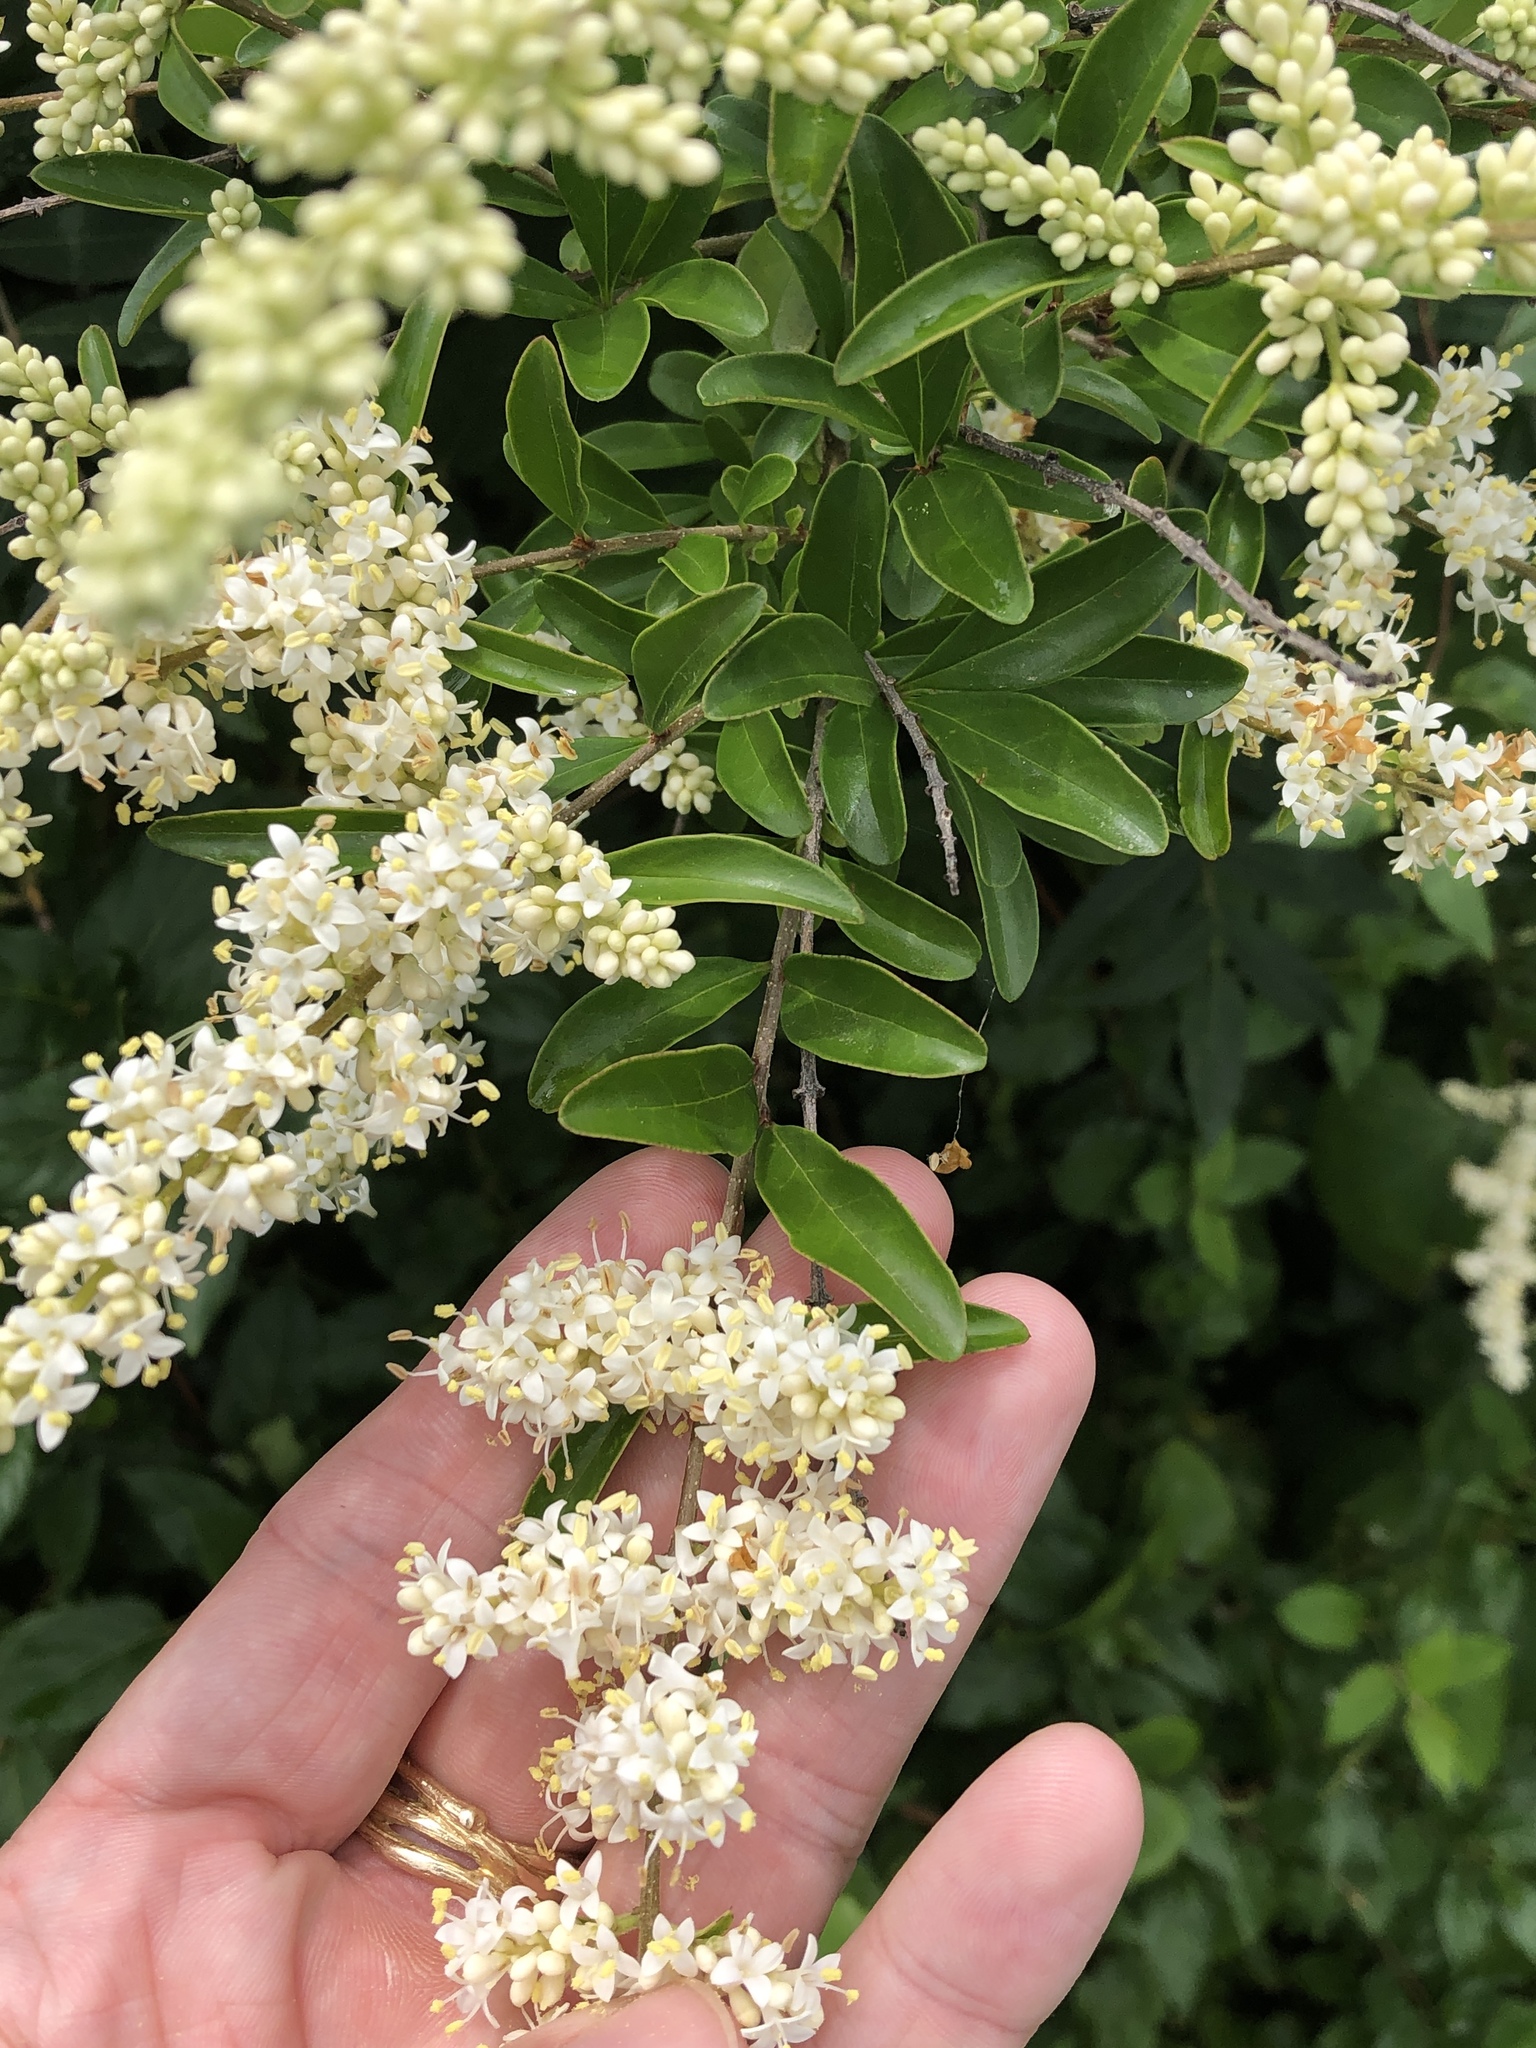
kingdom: Plantae
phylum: Tracheophyta
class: Magnoliopsida
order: Lamiales
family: Oleaceae
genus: Ligustrum
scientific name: Ligustrum quihoui
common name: Waxyleaf privet
